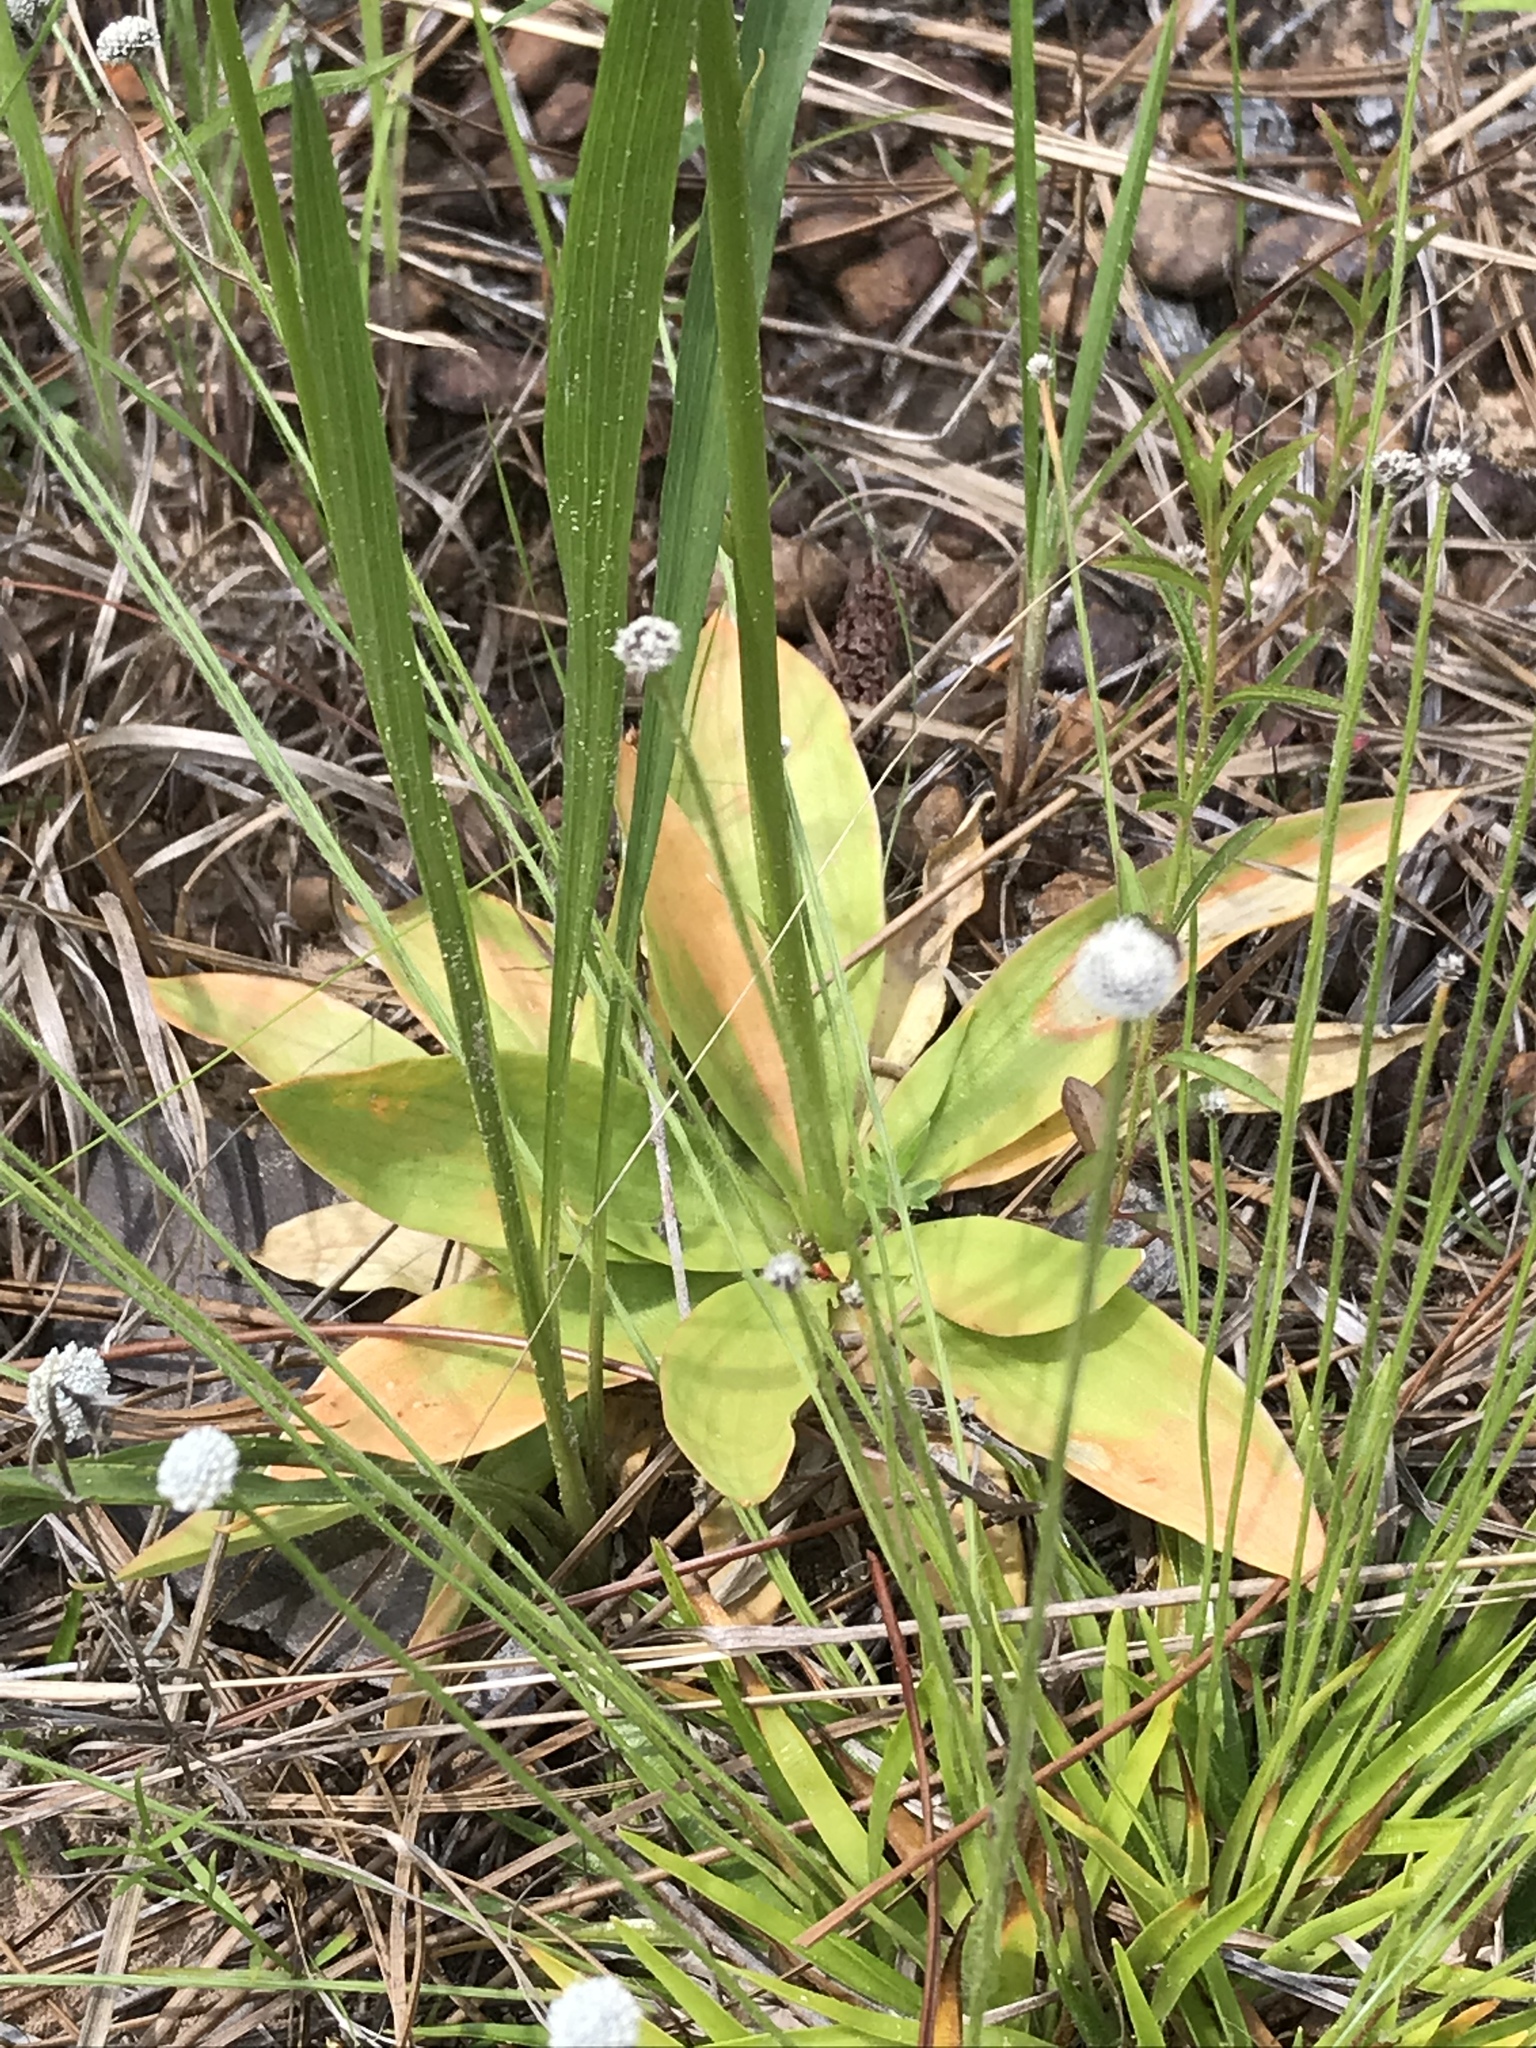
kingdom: Plantae
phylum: Tracheophyta
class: Liliopsida
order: Dioscoreales
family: Nartheciaceae
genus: Aletris
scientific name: Aletris aurea
